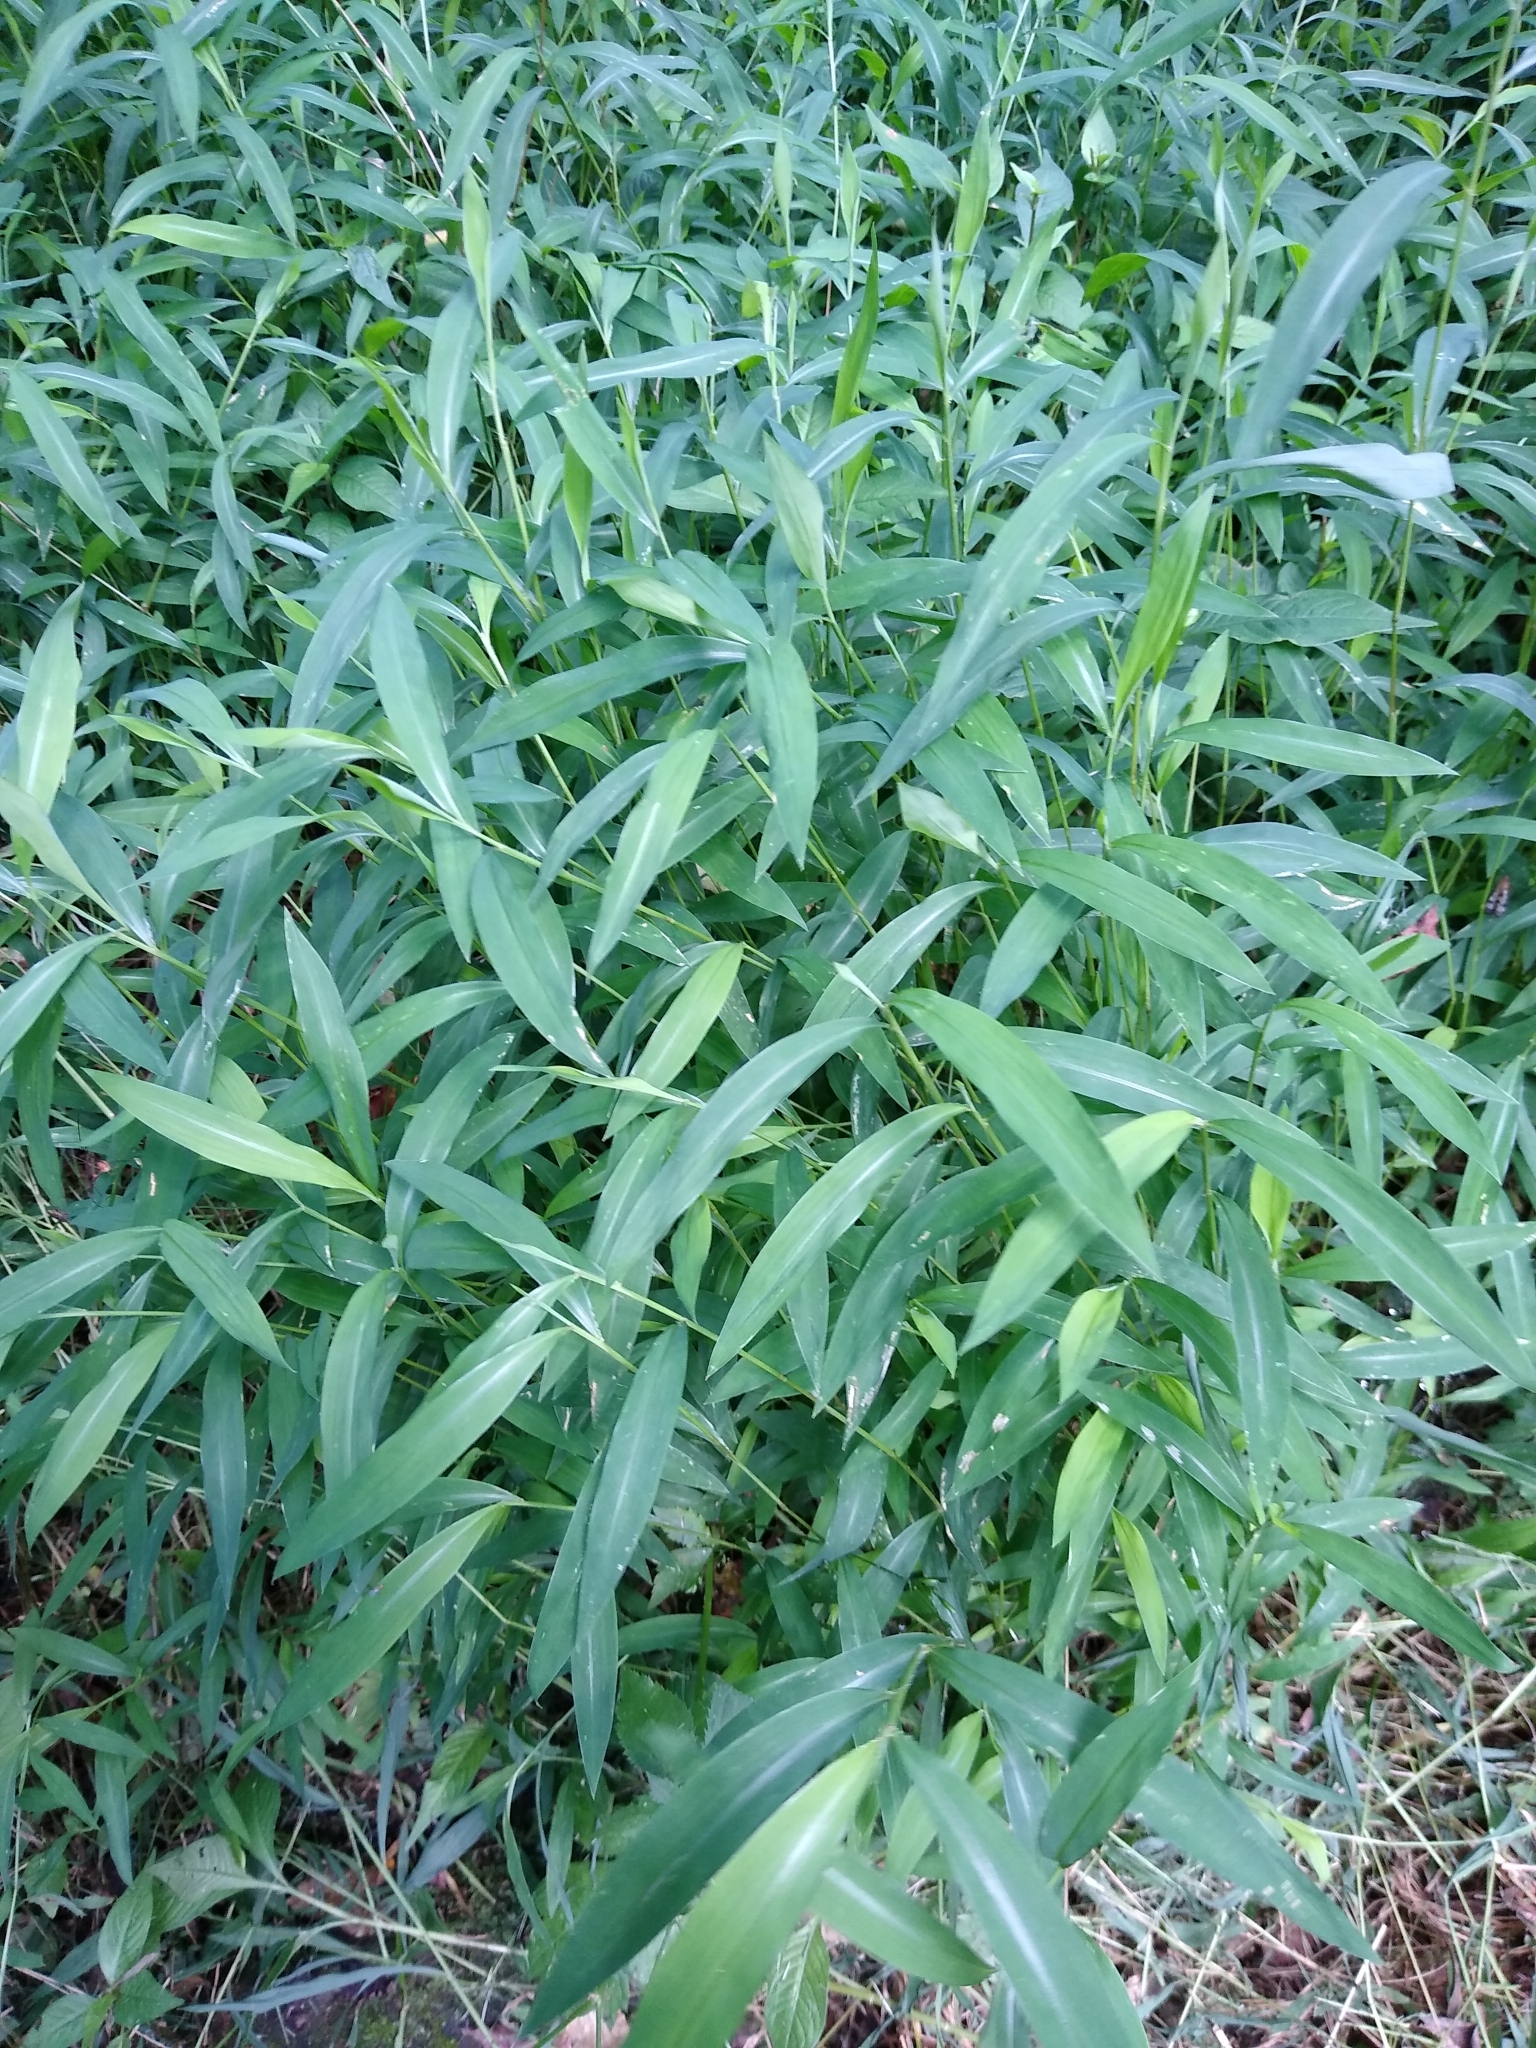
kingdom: Plantae
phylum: Tracheophyta
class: Liliopsida
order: Poales
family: Poaceae
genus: Microstegium
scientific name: Microstegium vimineum
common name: Japanese stiltgrass
